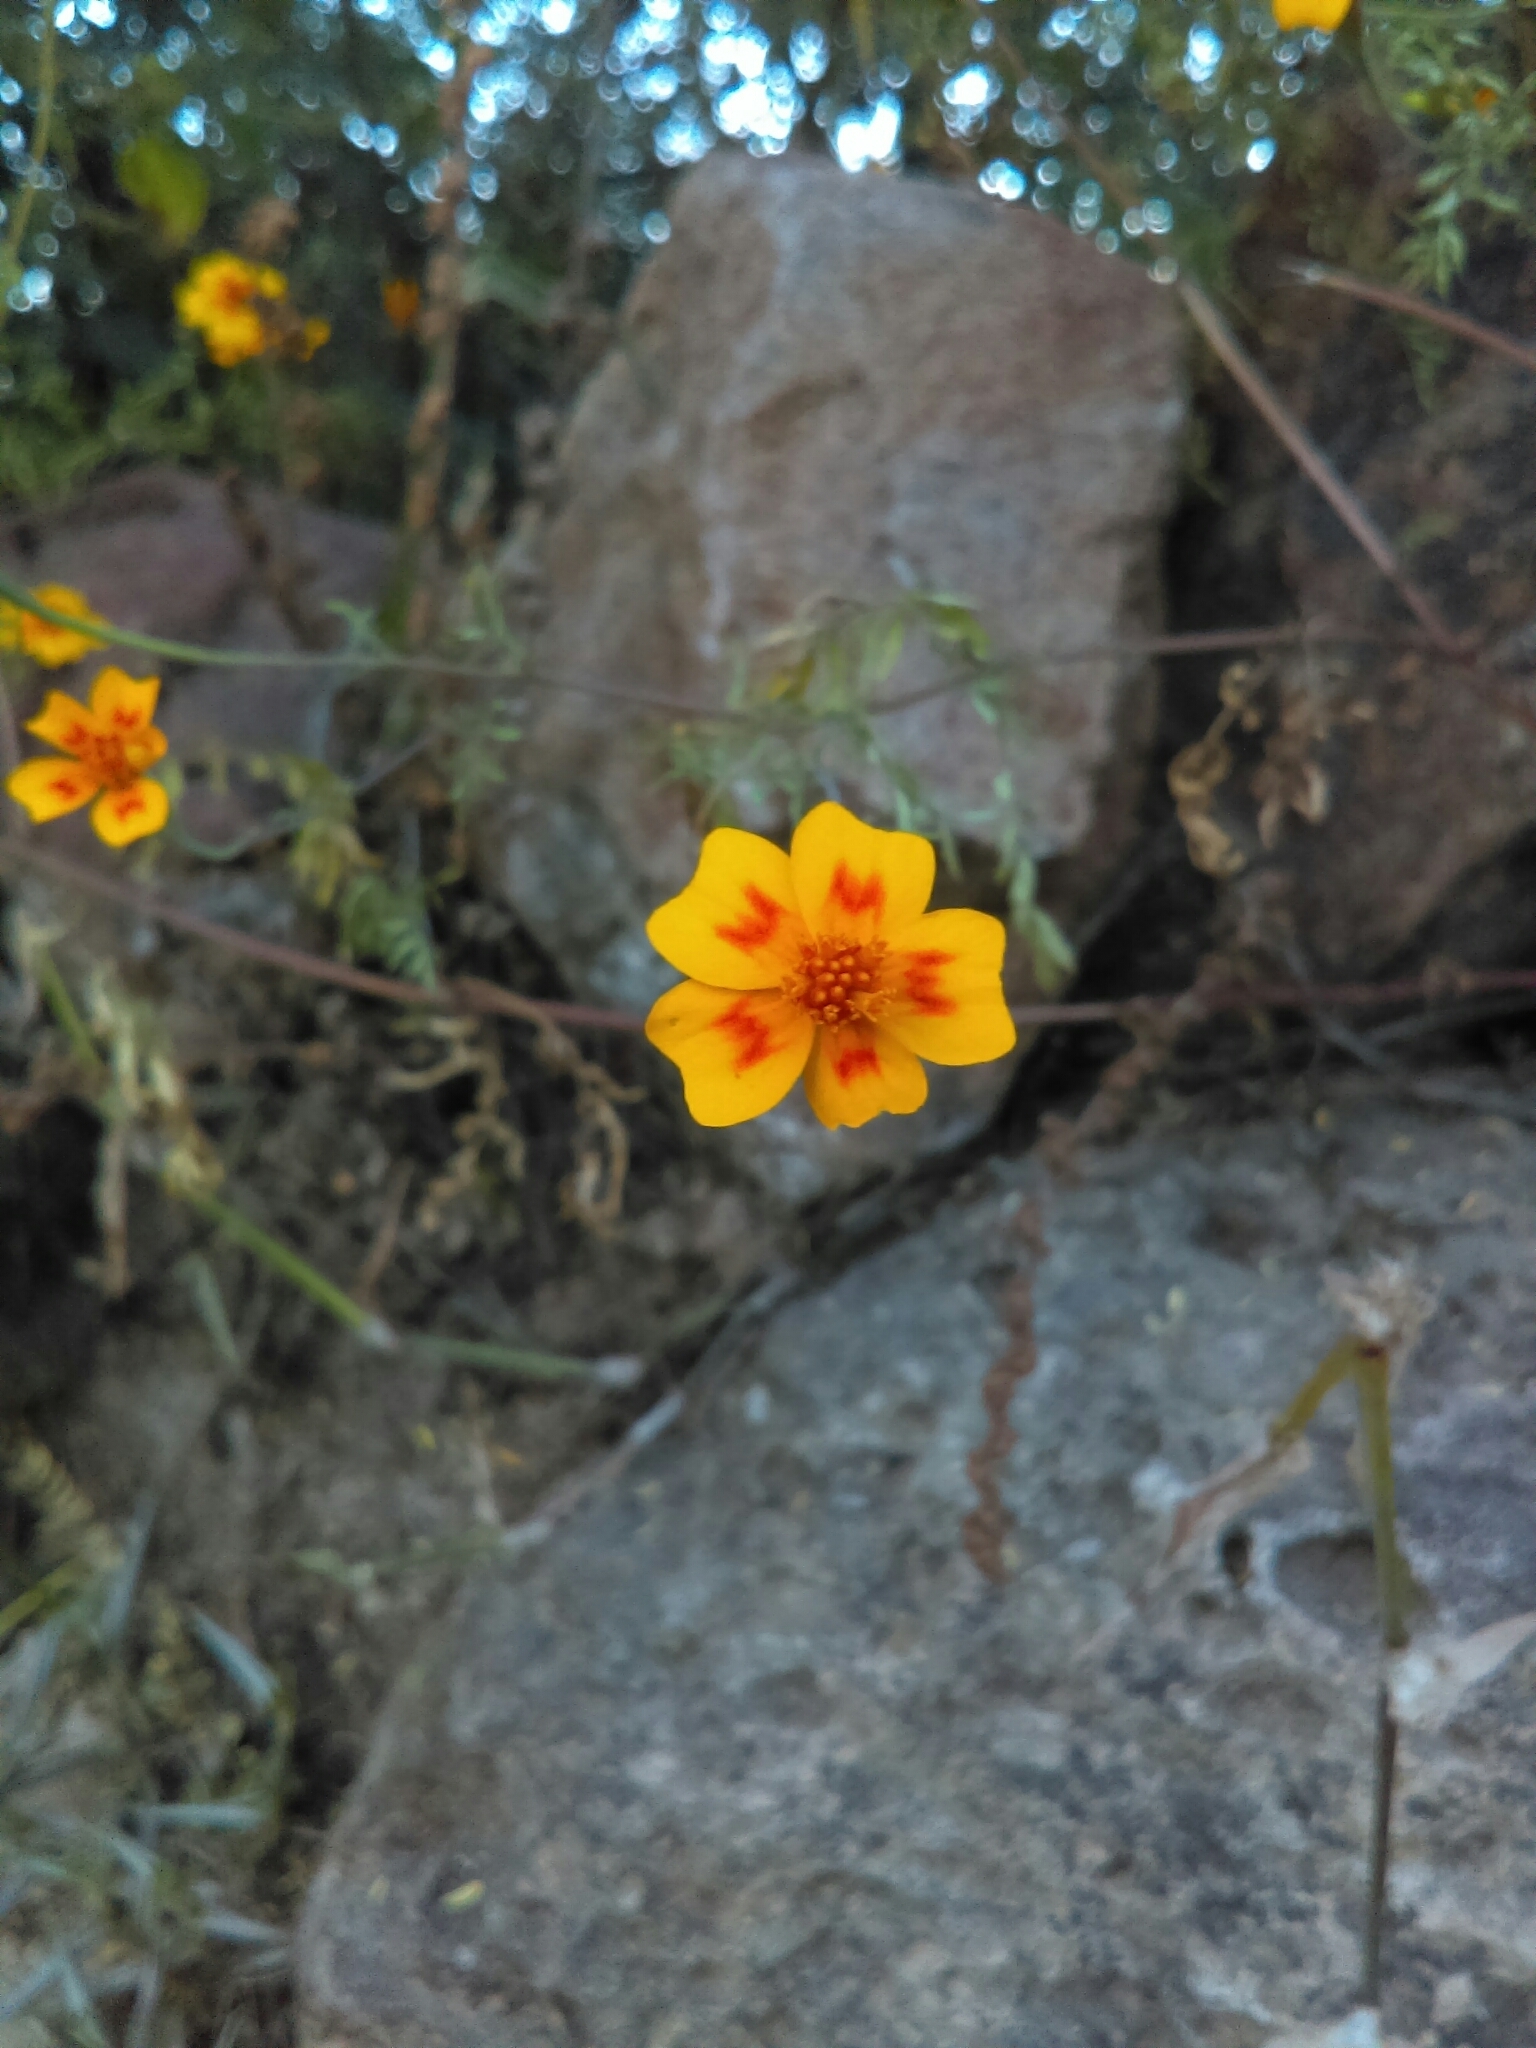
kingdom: Plantae
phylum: Tracheophyta
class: Magnoliopsida
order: Asterales
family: Asteraceae
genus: Tagetes
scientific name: Tagetes lunulata
